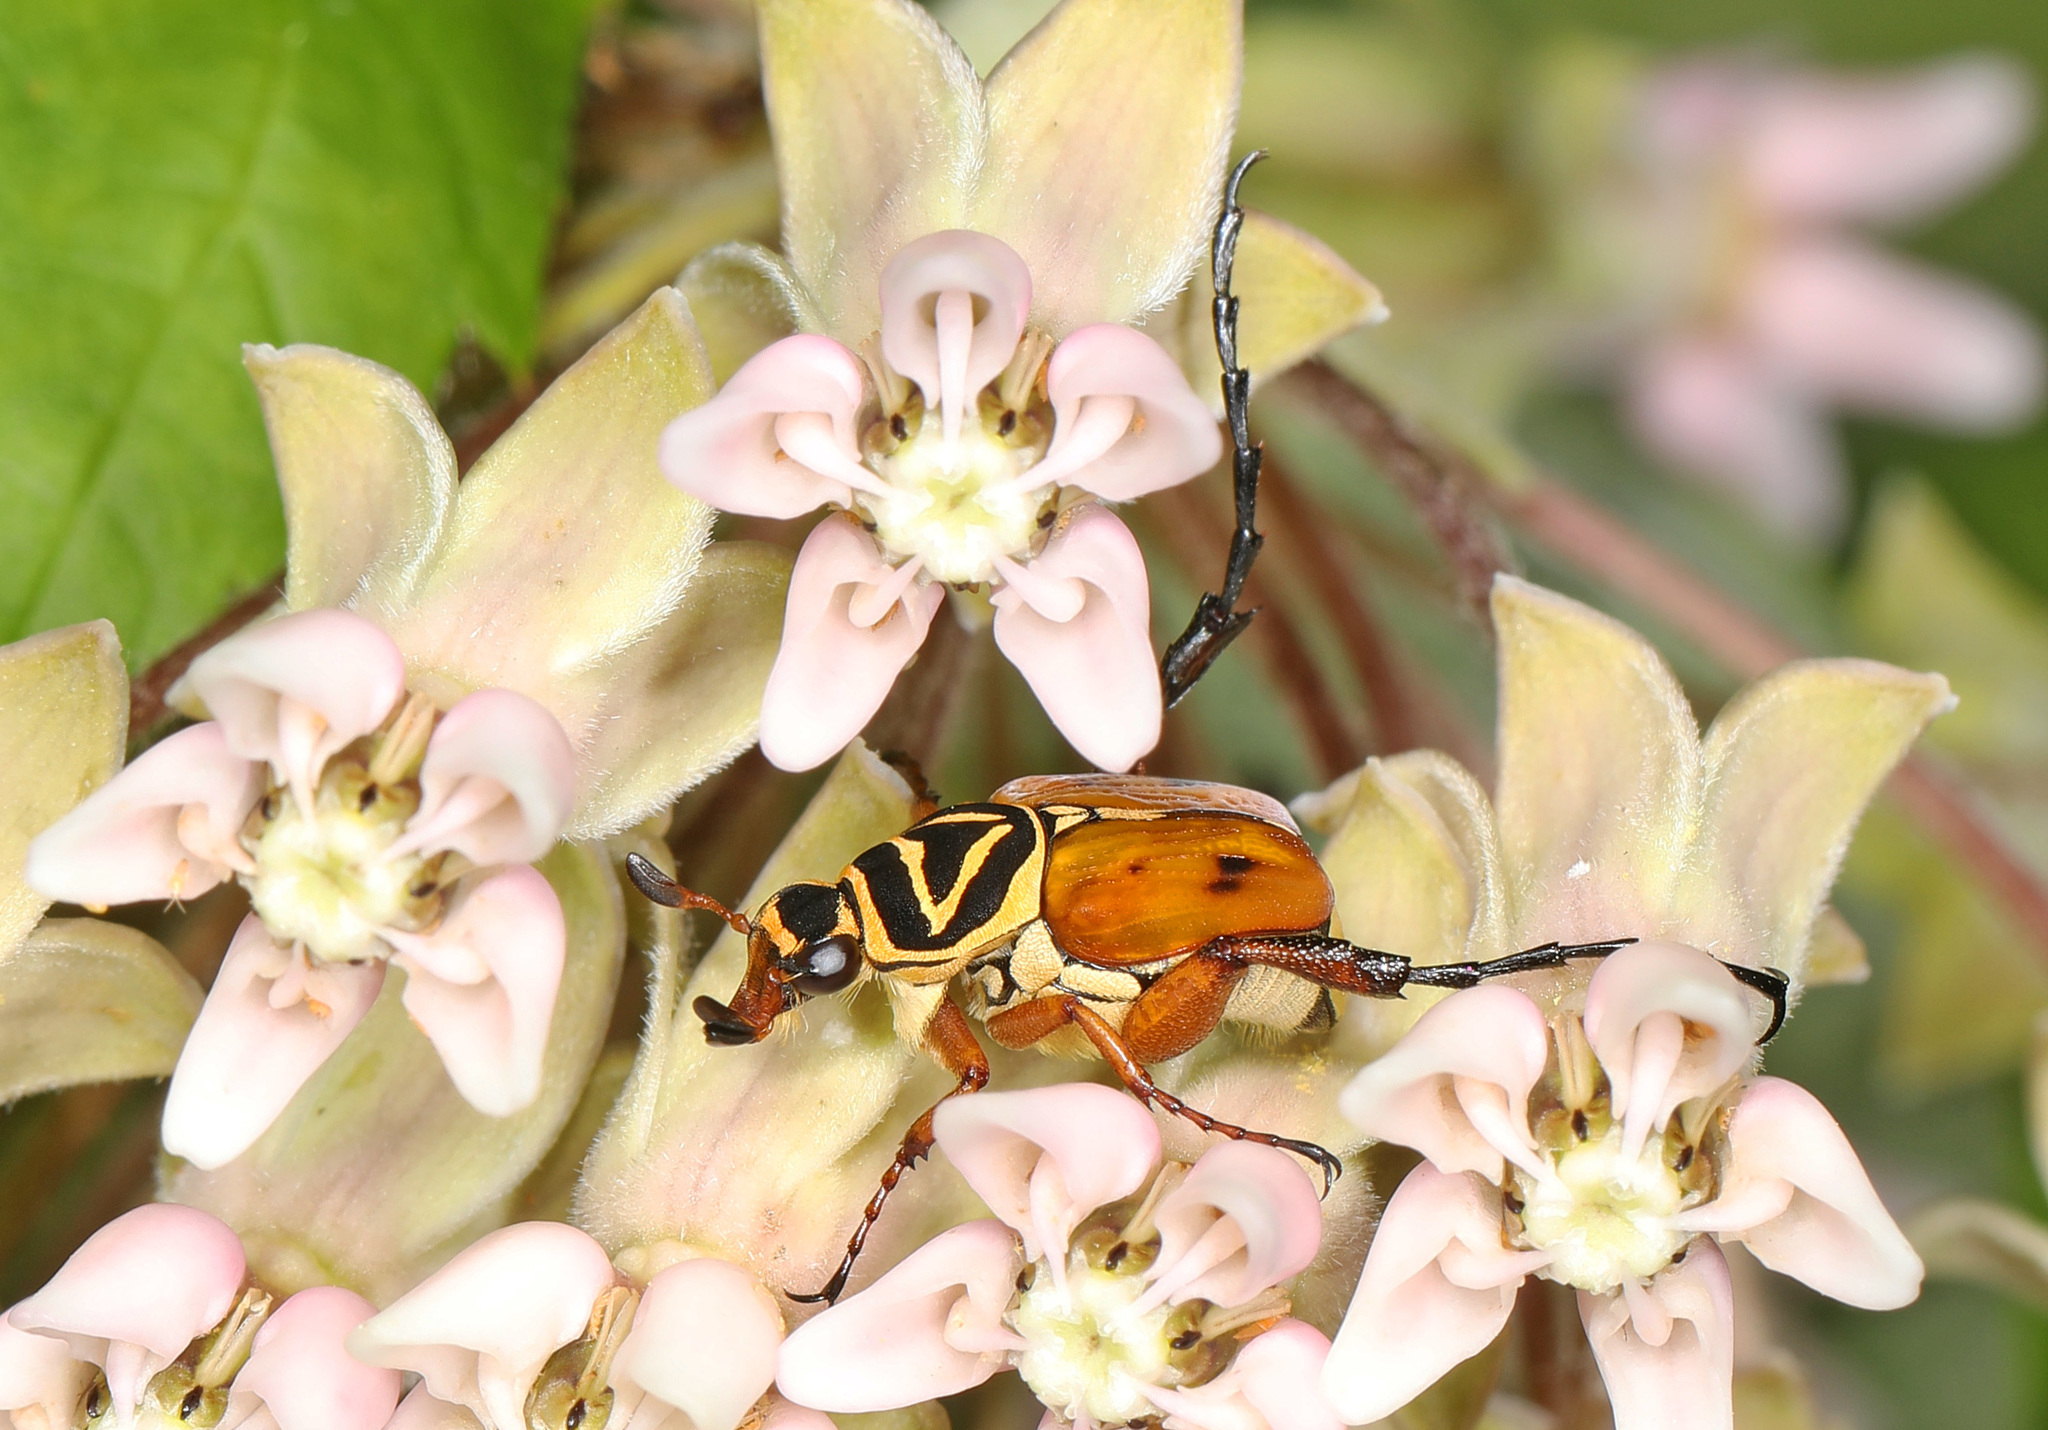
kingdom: Animalia
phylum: Arthropoda
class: Insecta
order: Coleoptera
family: Scarabaeidae
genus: Trigonopeltastes
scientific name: Trigonopeltastes delta
